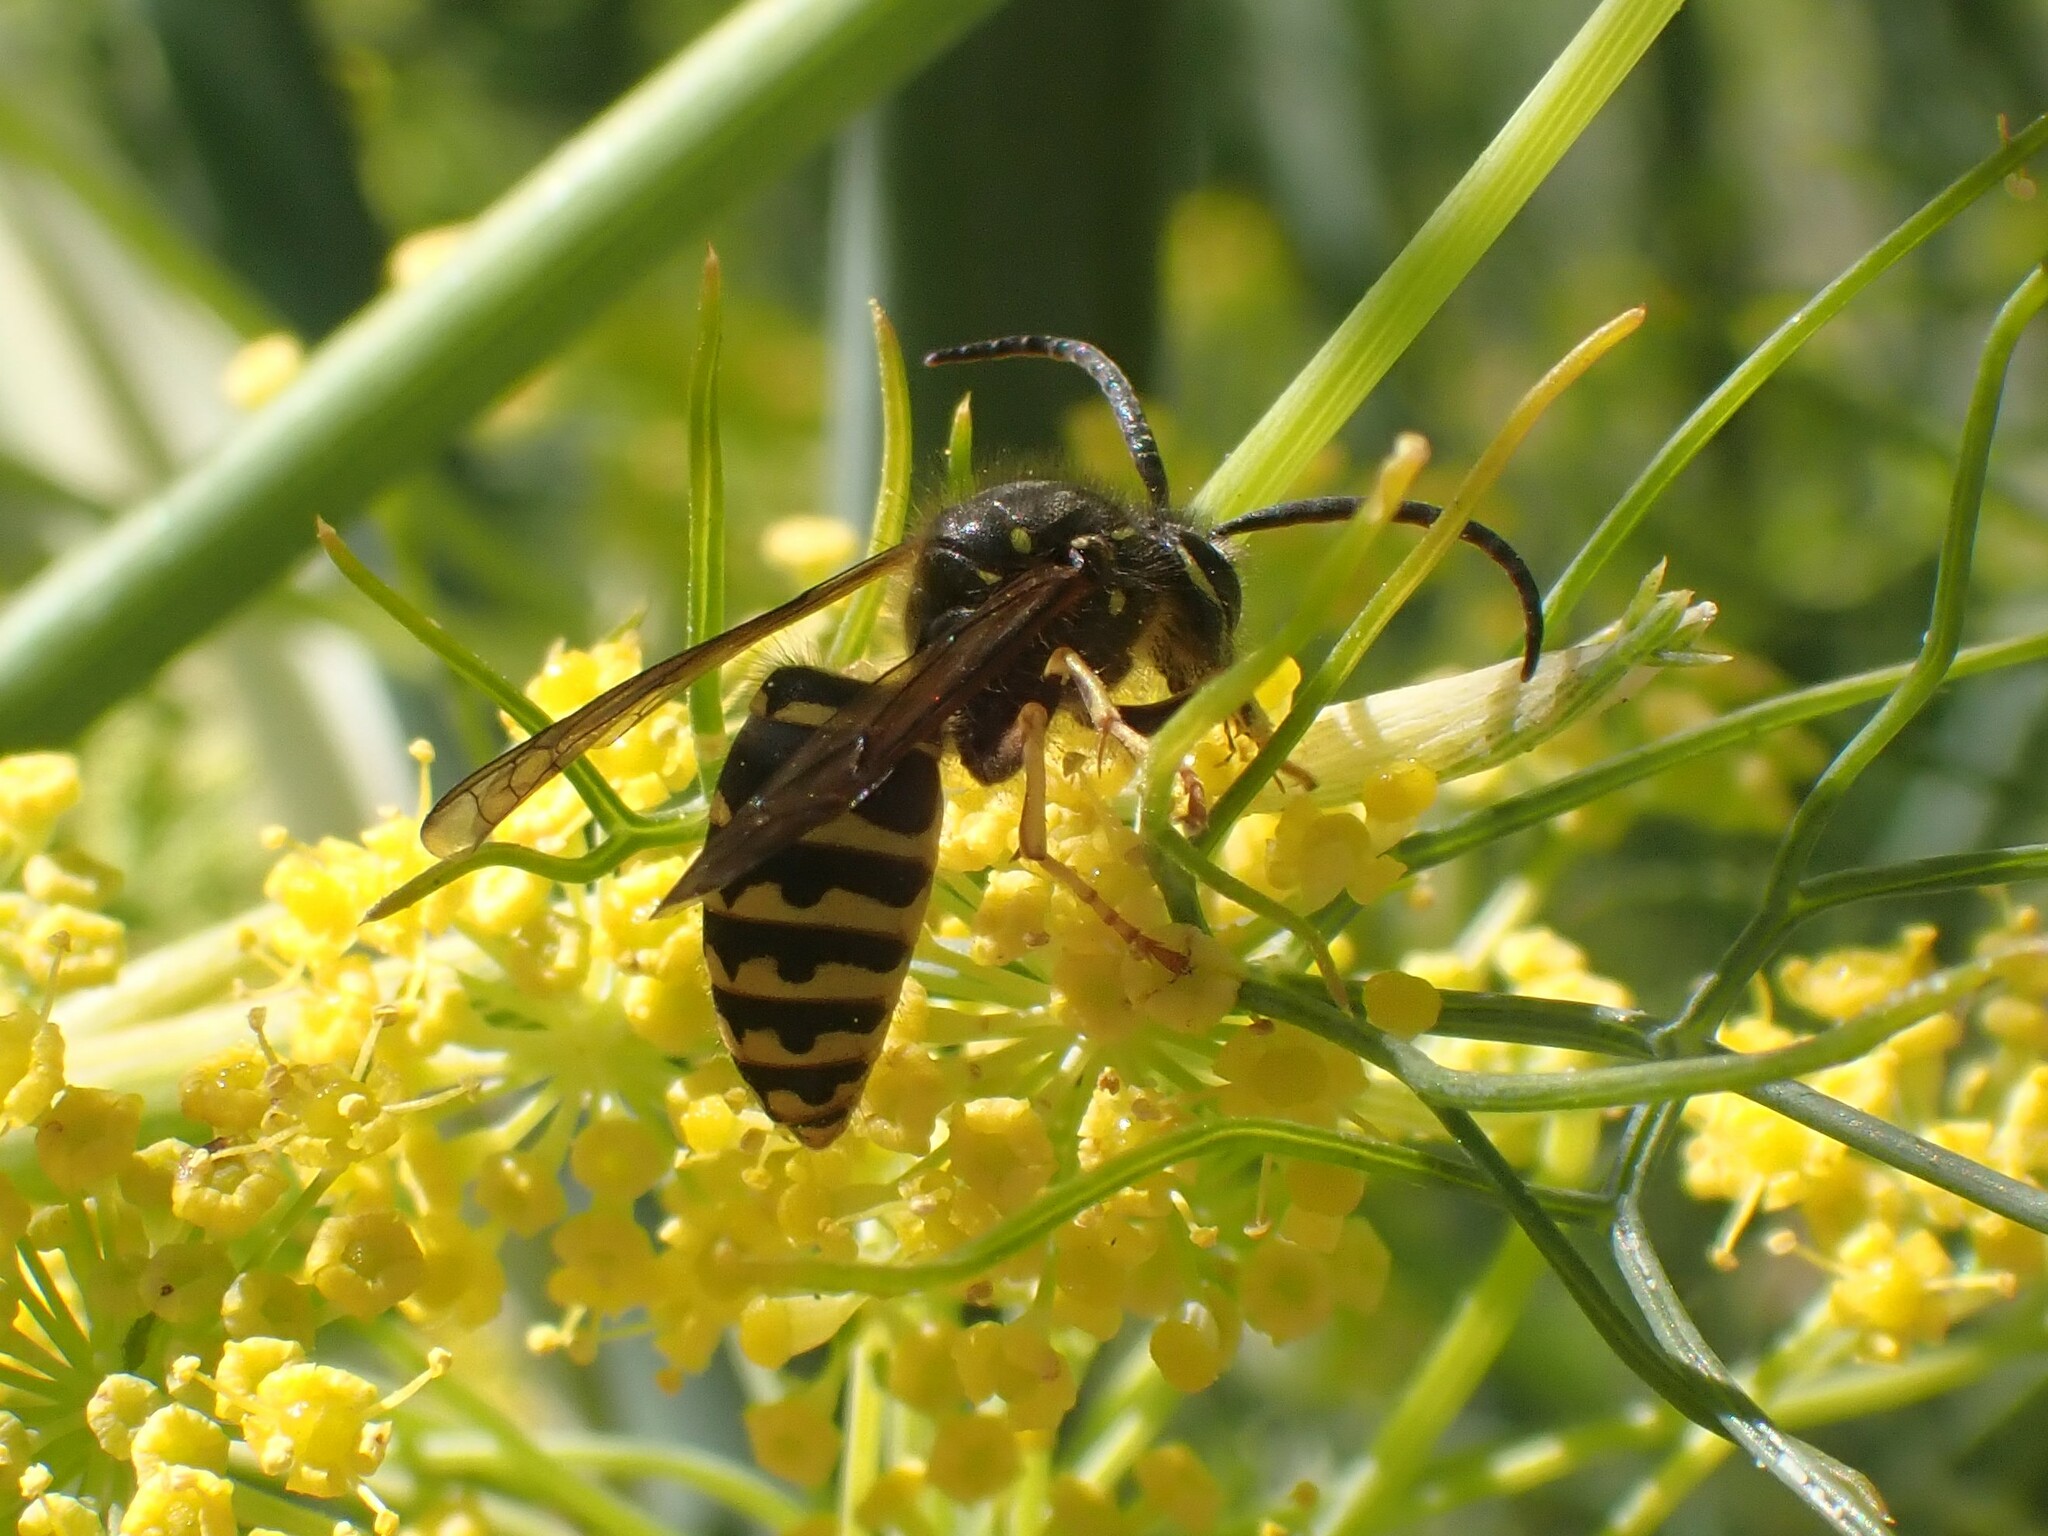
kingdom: Animalia
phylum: Arthropoda
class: Insecta
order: Hymenoptera
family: Vespidae
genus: Dolichovespula
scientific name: Dolichovespula arenaria
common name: Aerial yellowjacket
